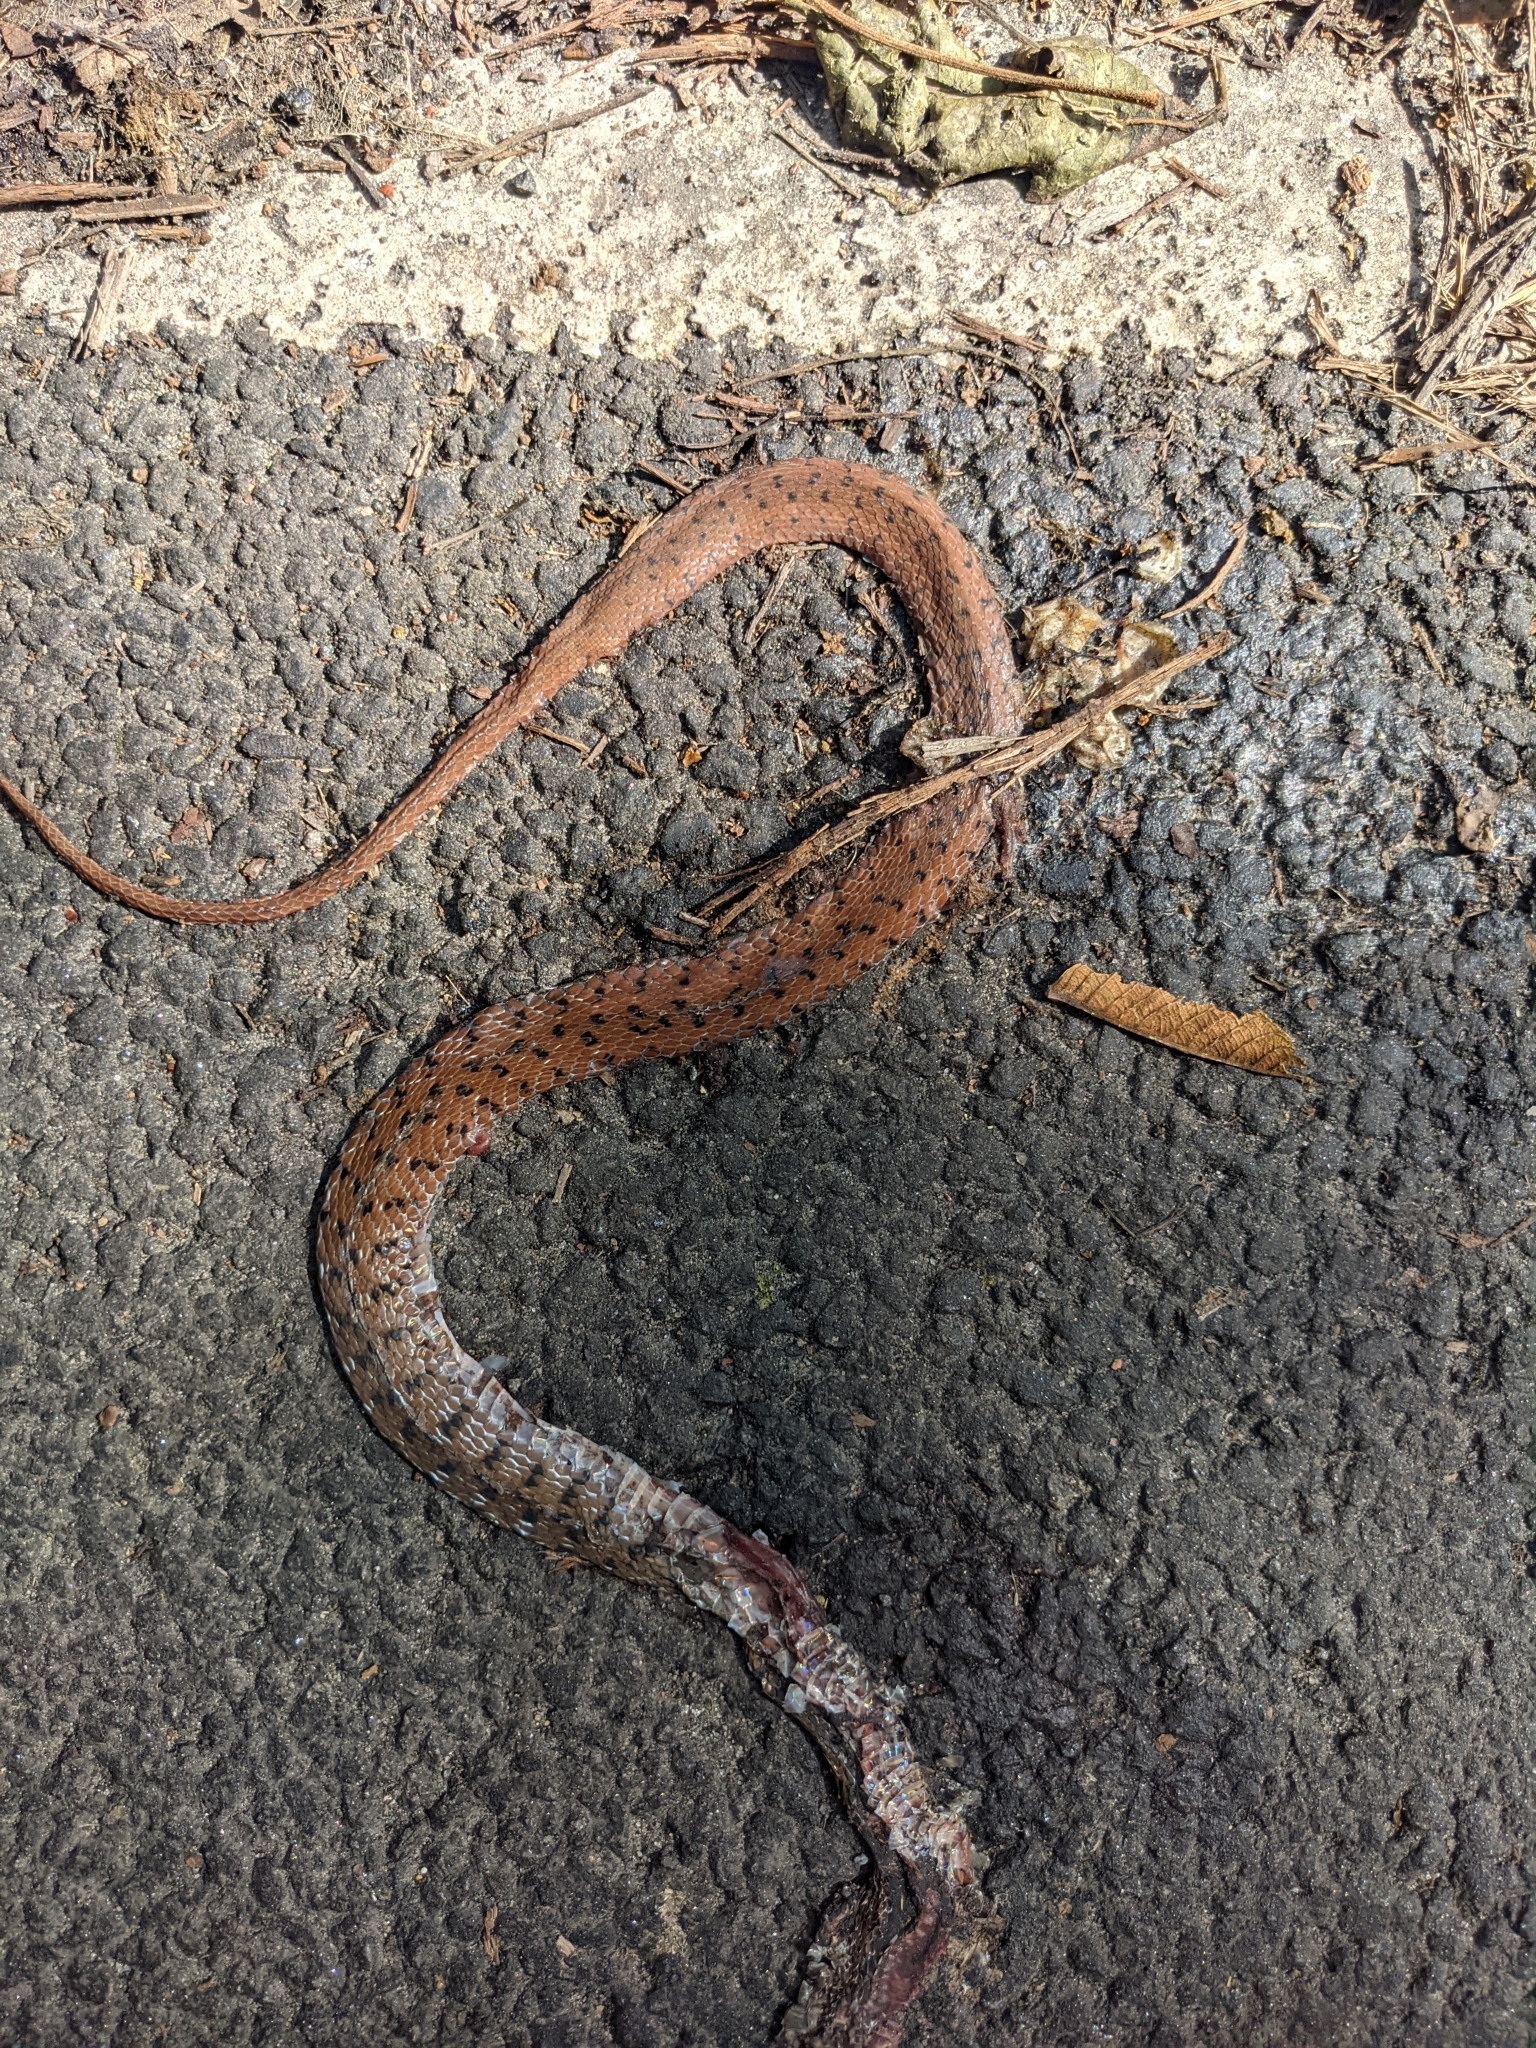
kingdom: Animalia
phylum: Chordata
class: Squamata
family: Colubridae
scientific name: Colubridae
